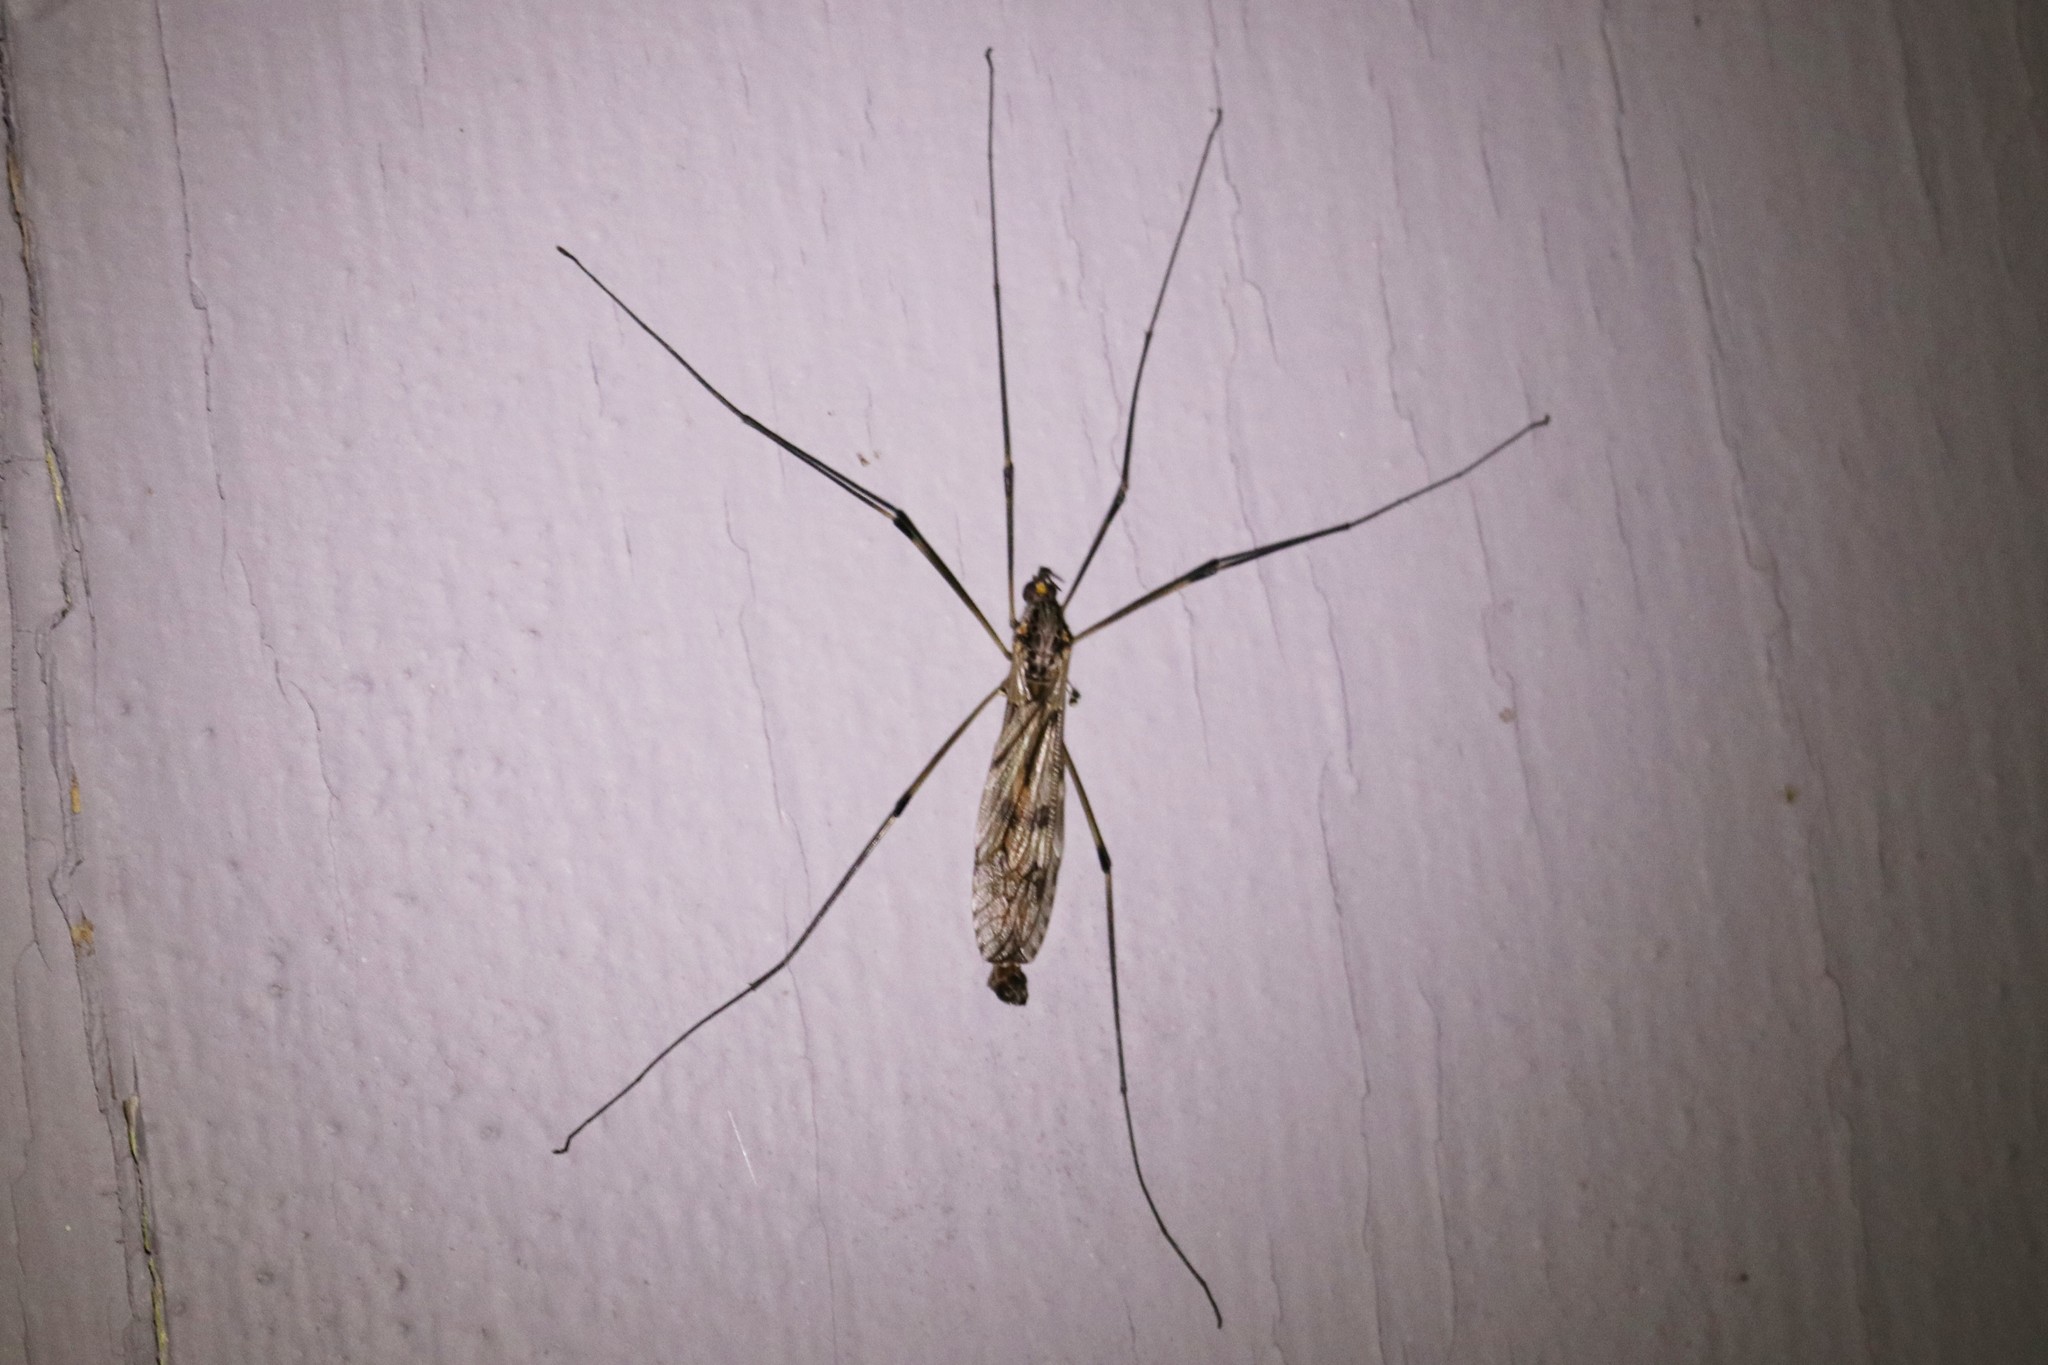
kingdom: Animalia
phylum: Arthropoda
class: Insecta
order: Diptera
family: Tipulidae
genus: Tipula
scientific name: Tipula abdominalis
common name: Giant crane fly
